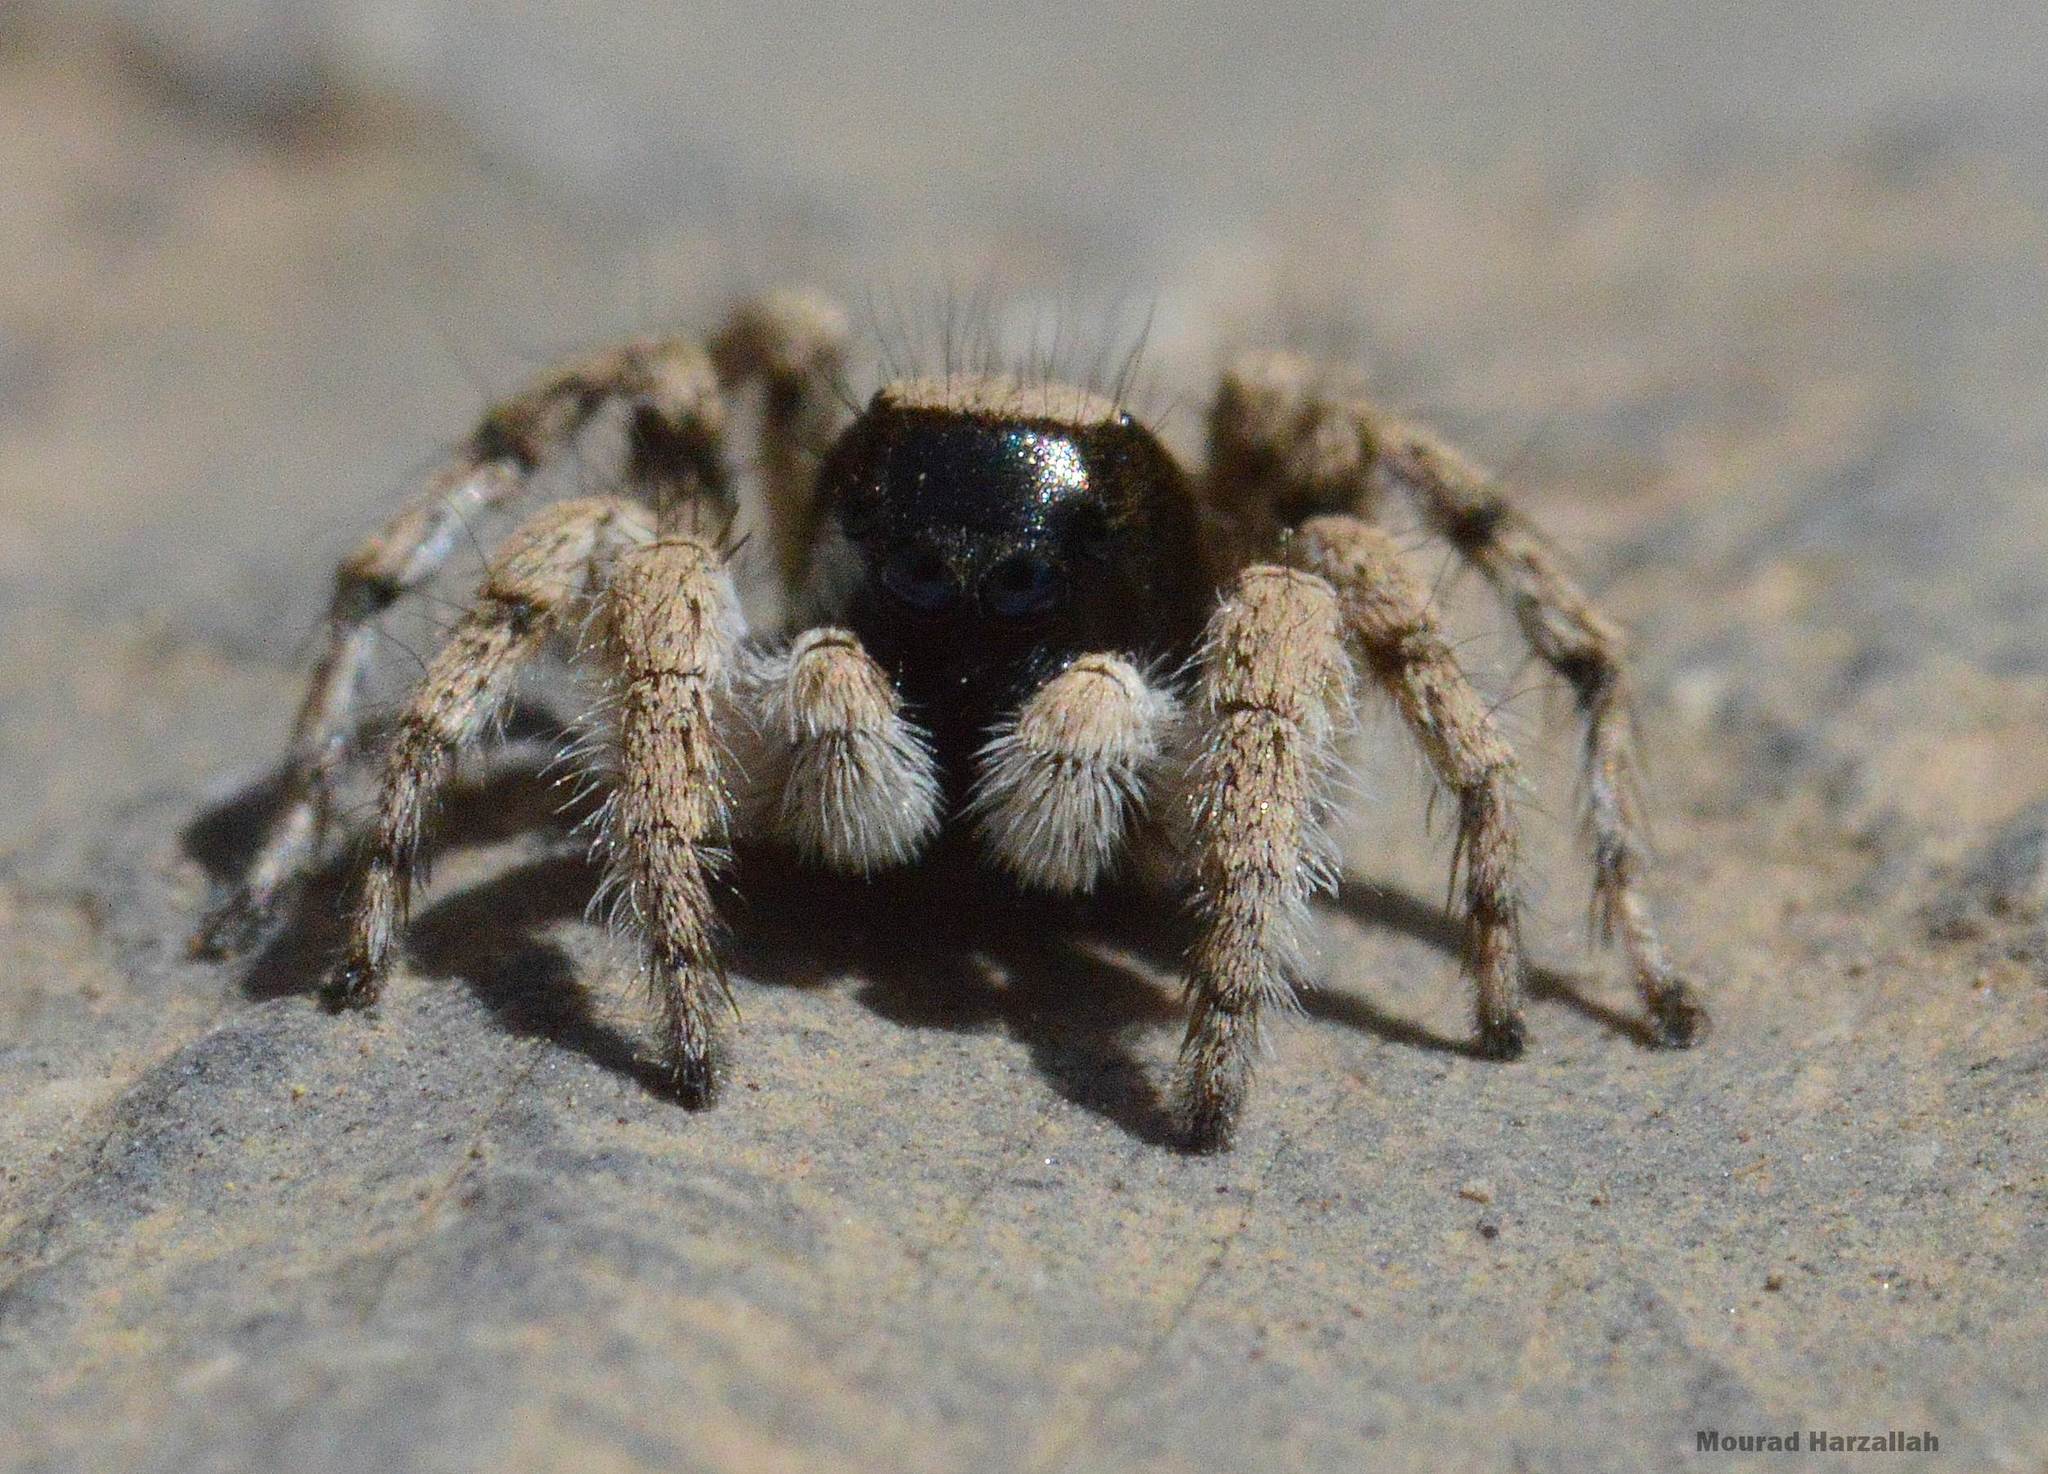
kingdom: Animalia
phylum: Arthropoda
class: Arachnida
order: Araneae
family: Salticidae
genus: Aelurillus
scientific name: Aelurillus aeruginosus
